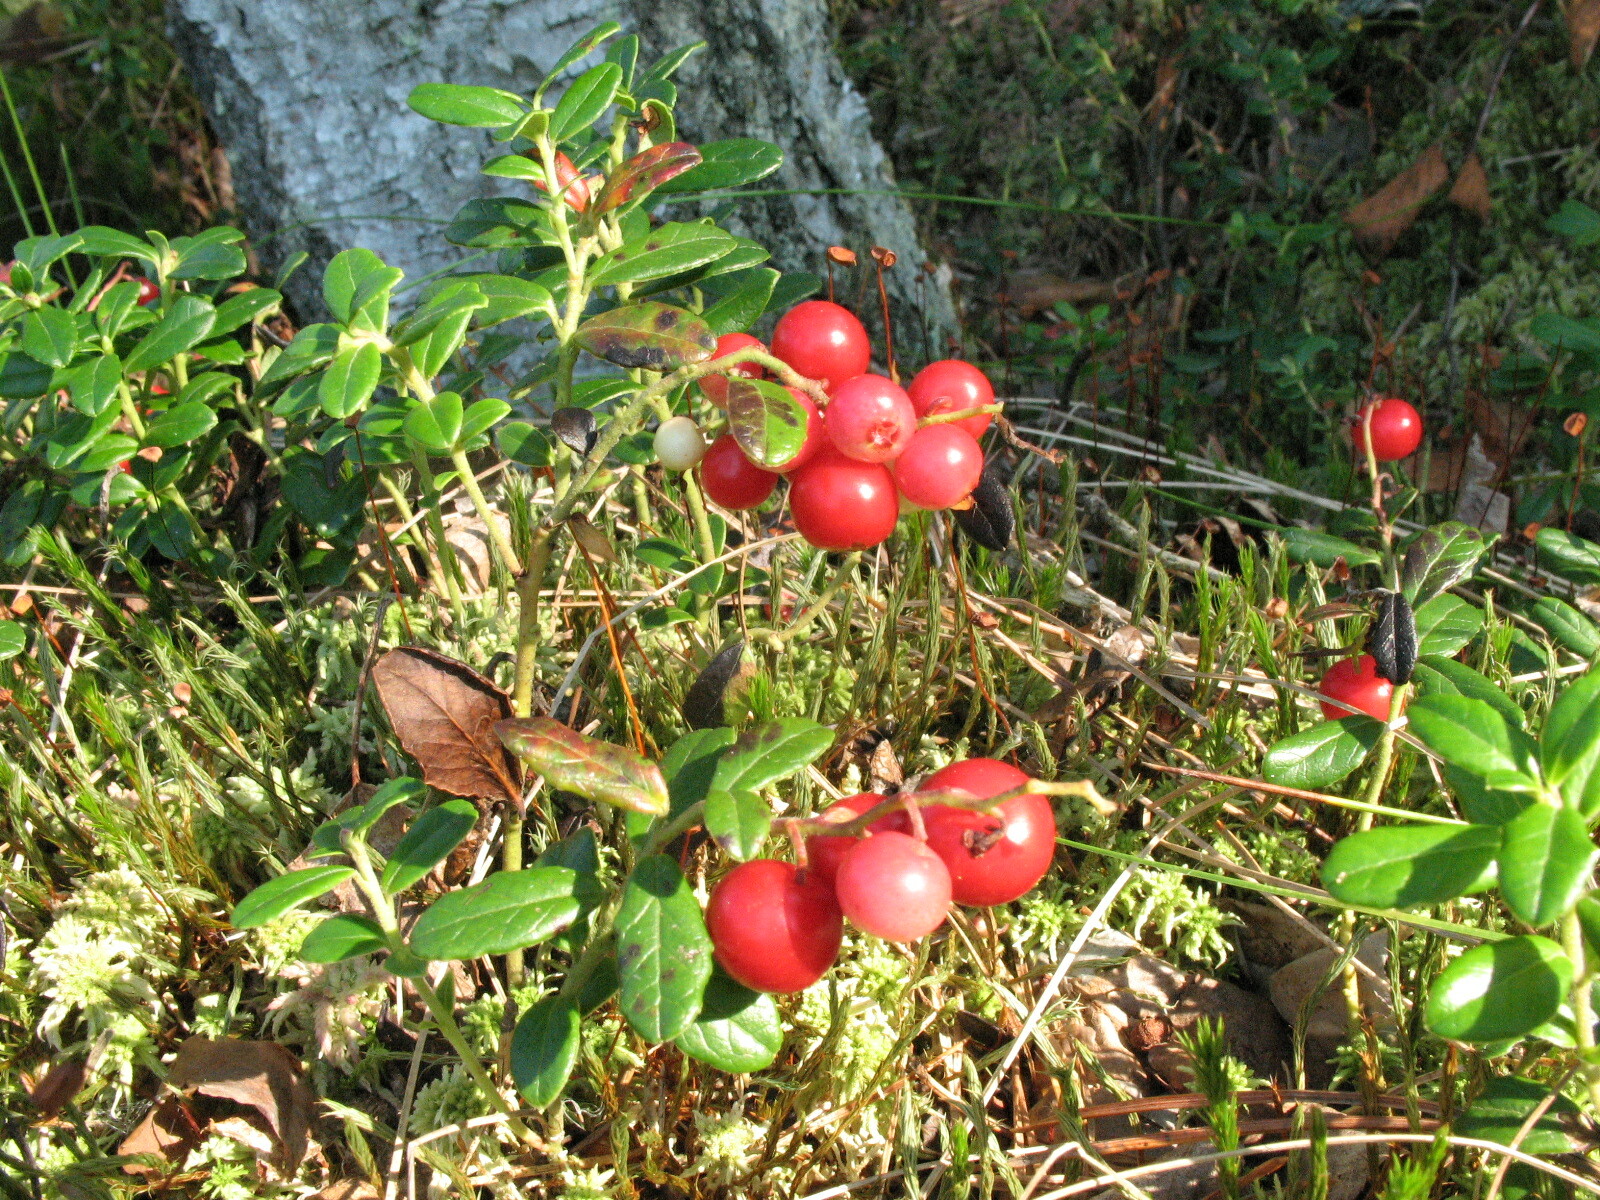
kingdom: Plantae
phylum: Tracheophyta
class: Magnoliopsida
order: Ericales
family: Ericaceae
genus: Vaccinium
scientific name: Vaccinium vitis-idaea
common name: Cowberry
